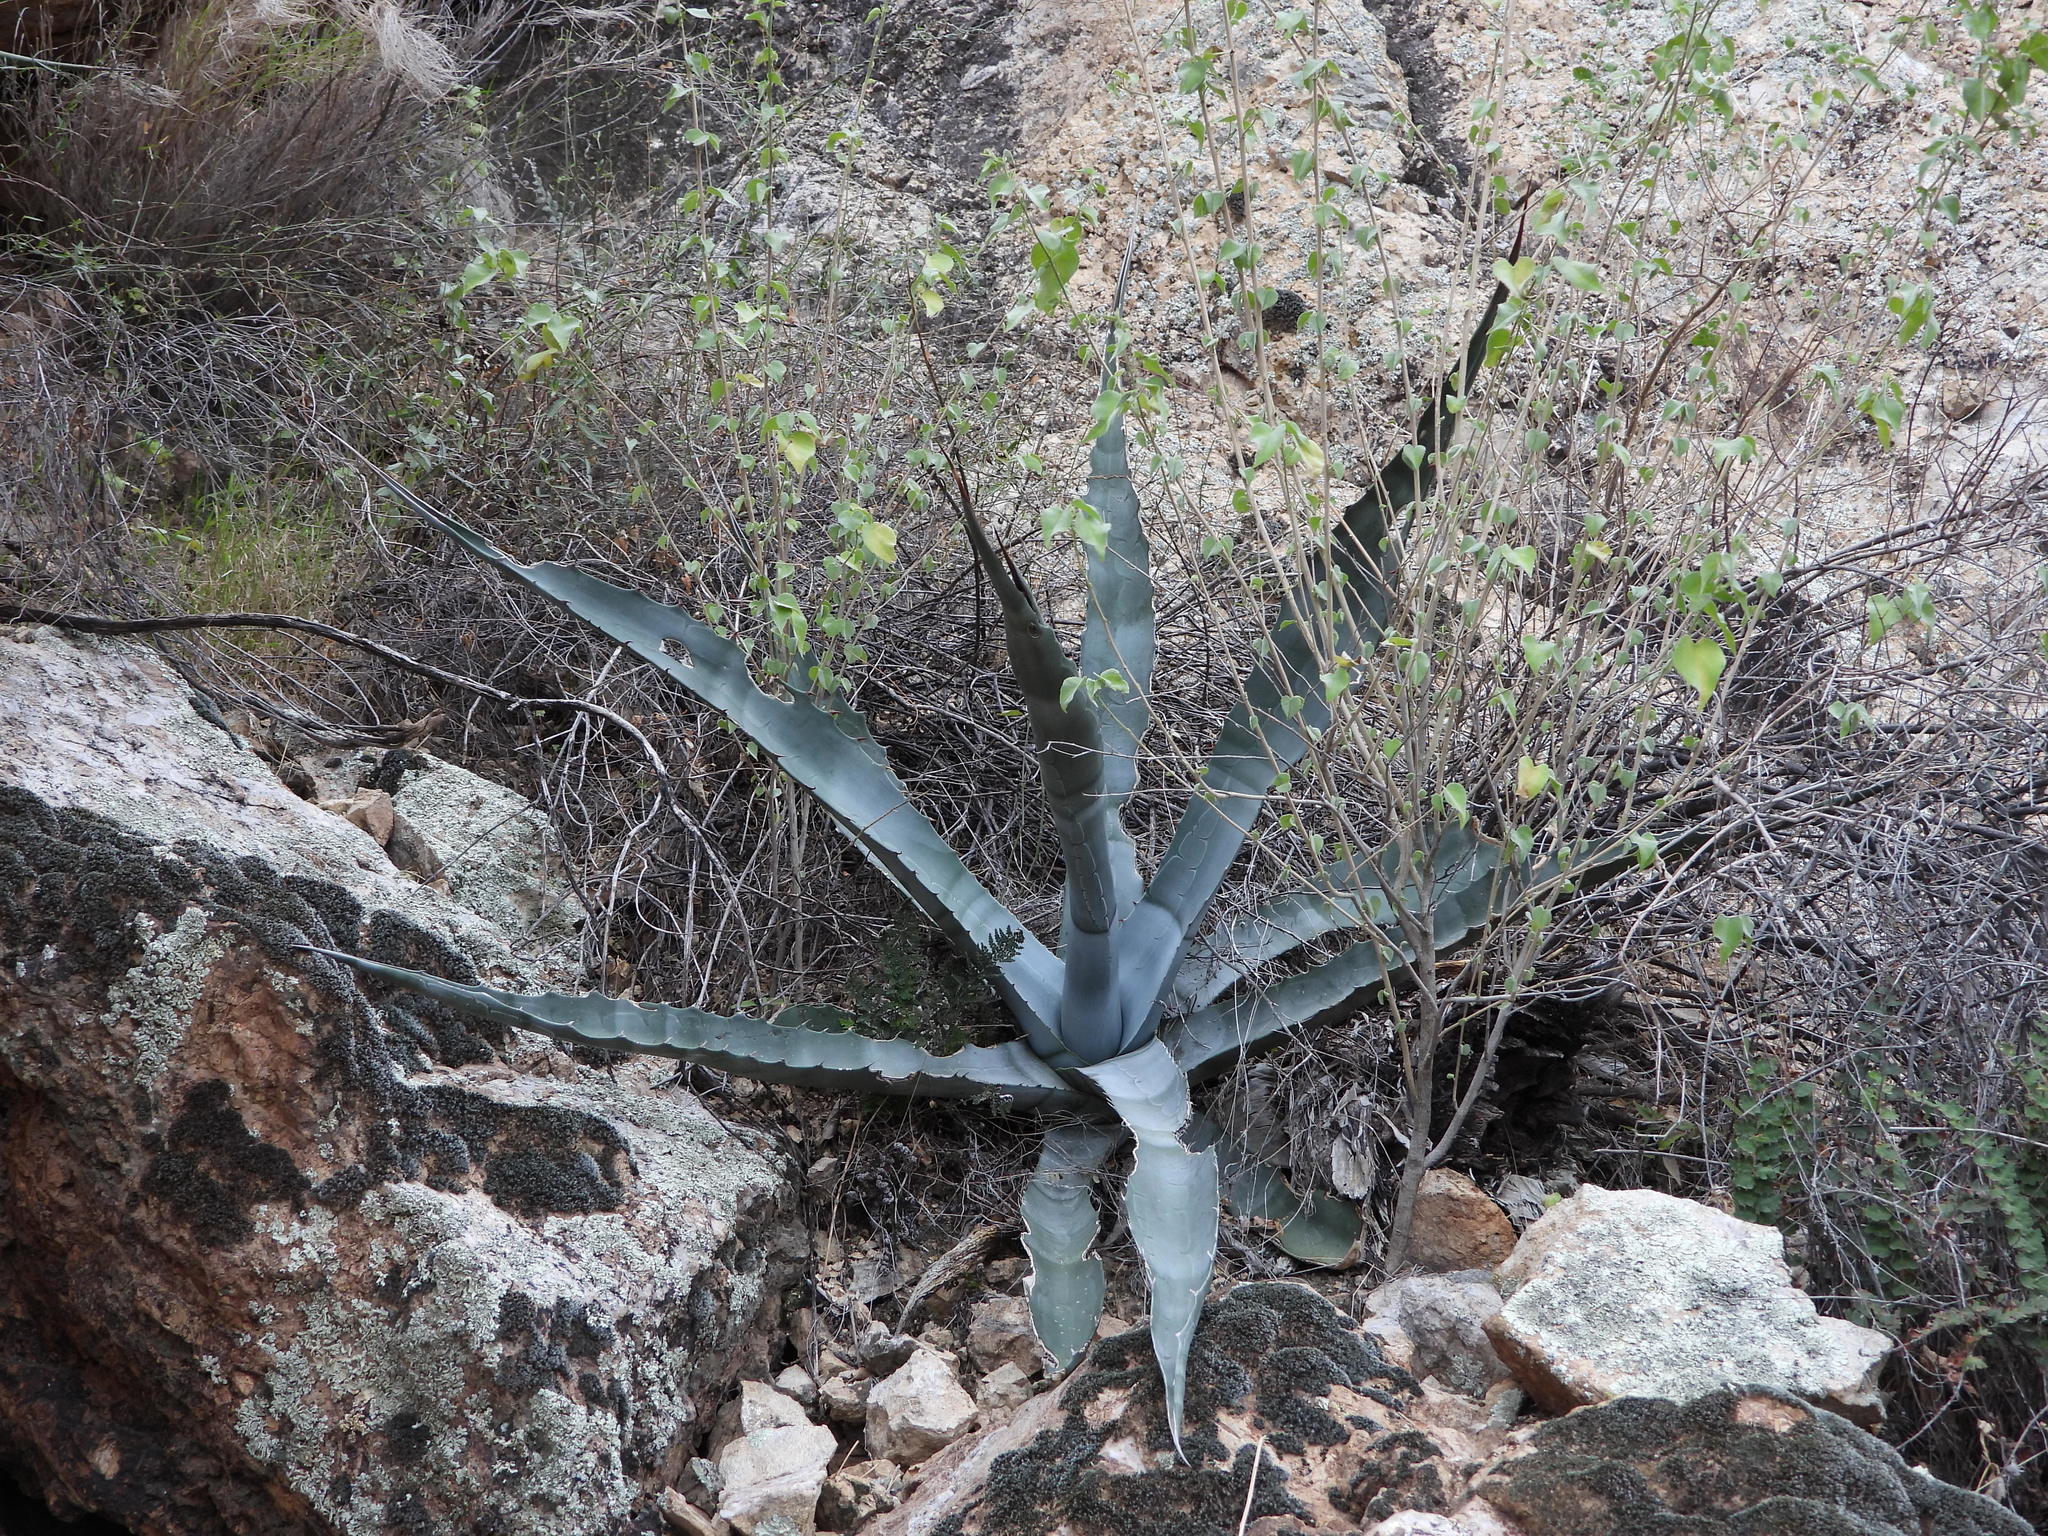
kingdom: Plantae
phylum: Tracheophyta
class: Liliopsida
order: Asparagales
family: Asparagaceae
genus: Agave
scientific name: Agave chrysantha
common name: Golden-flowered agave
